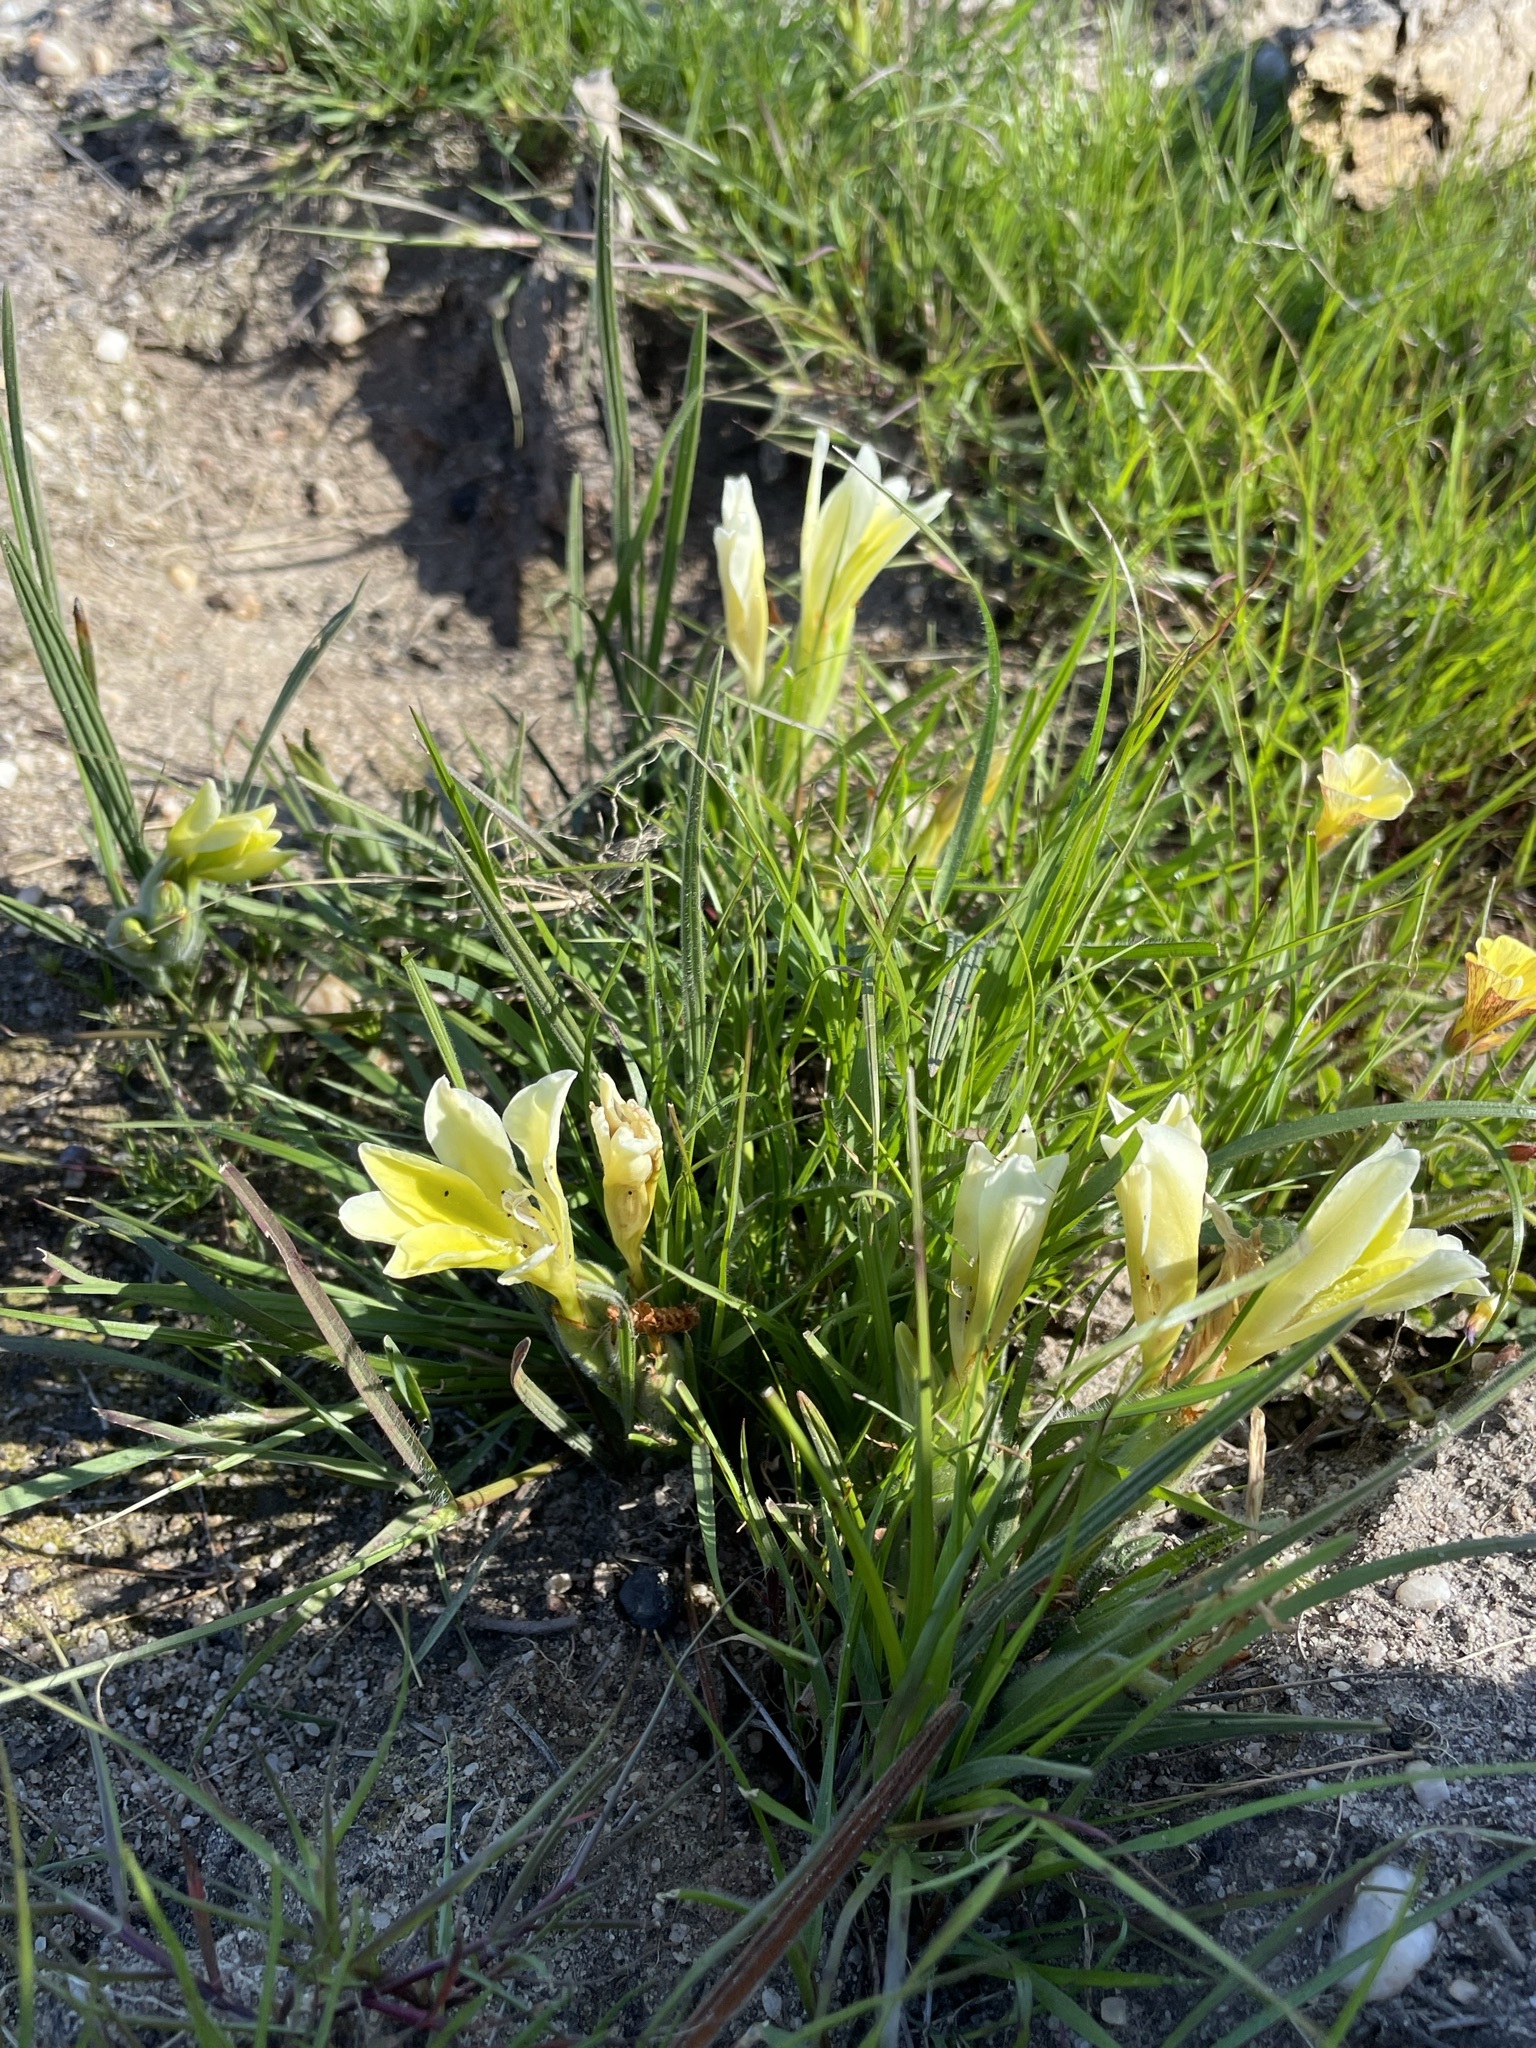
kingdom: Plantae
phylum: Tracheophyta
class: Liliopsida
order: Asparagales
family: Iridaceae
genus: Babiana
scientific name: Babiana vanzijliae
